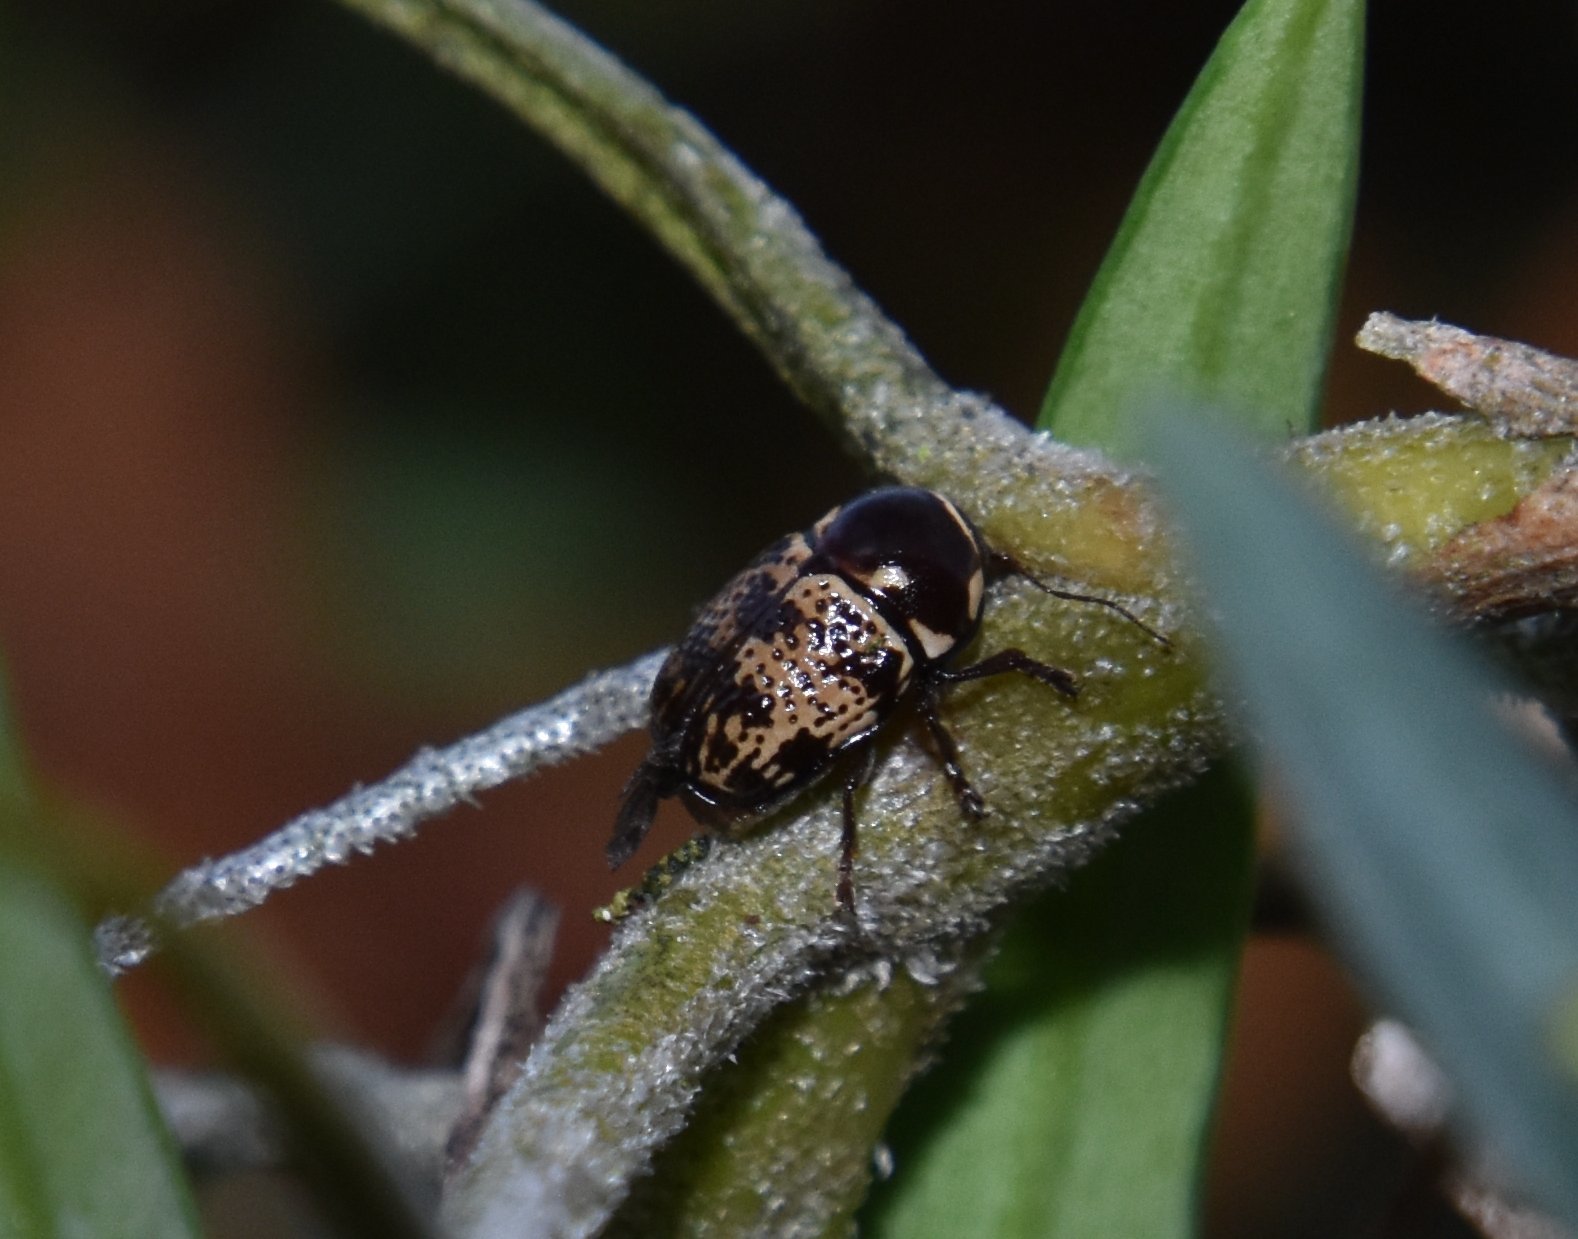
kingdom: Animalia
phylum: Arthropoda
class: Insecta
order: Coleoptera
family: Chrysomelidae
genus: Cryptocephalus
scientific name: Cryptocephalus irroratus
